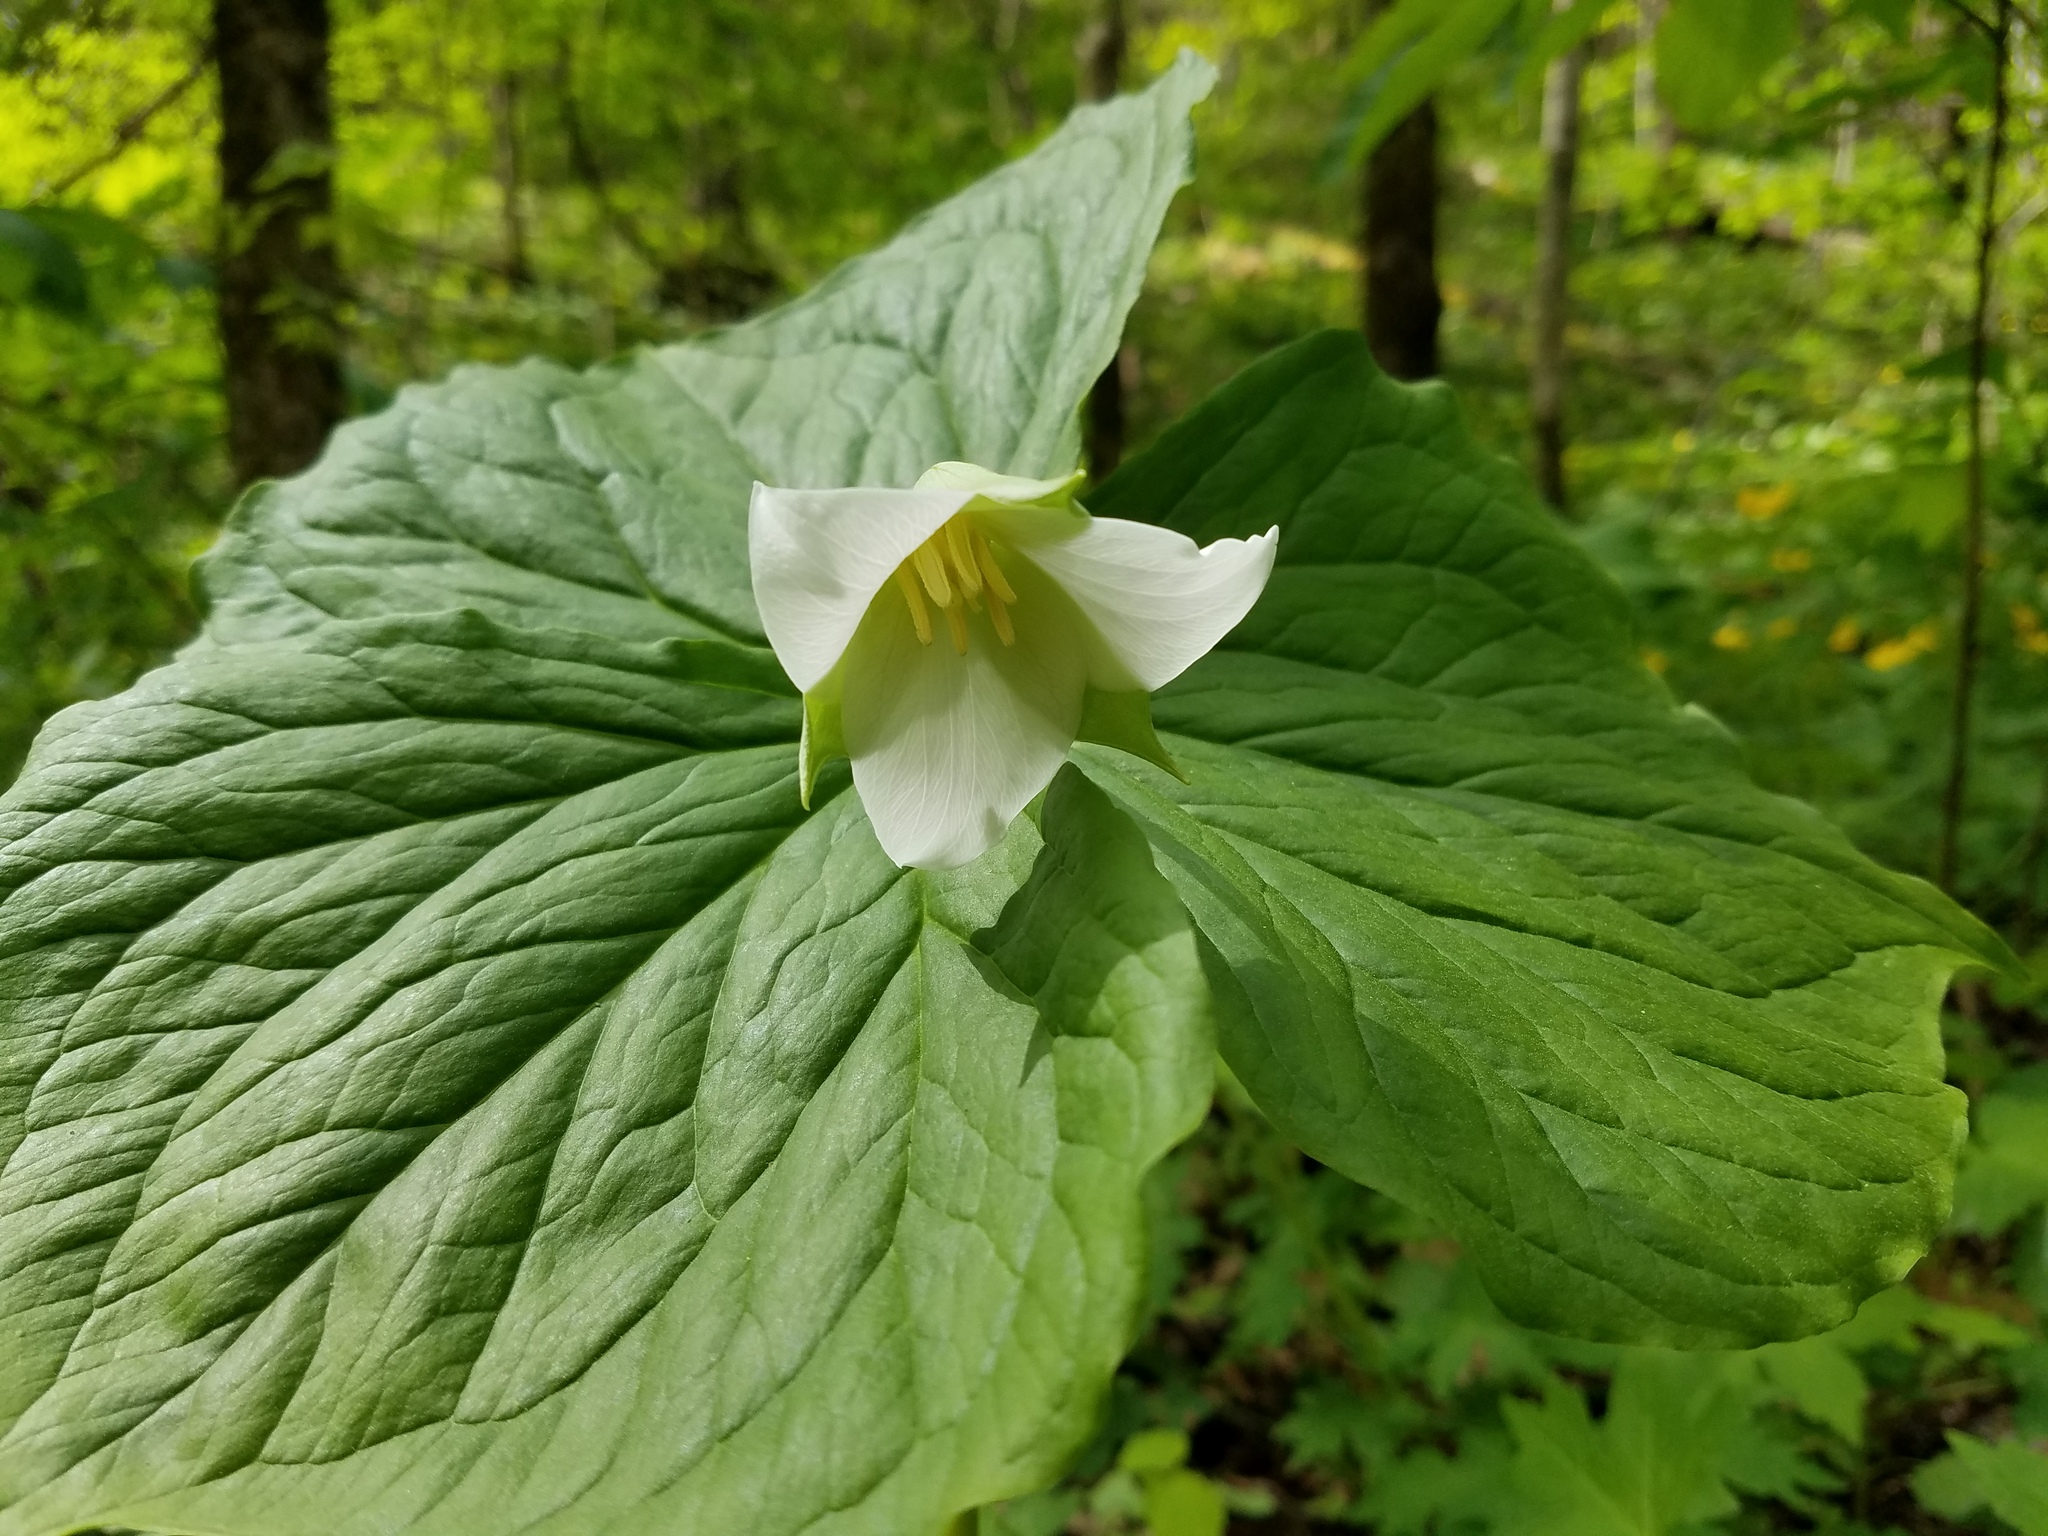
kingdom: Plantae
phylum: Tracheophyta
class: Liliopsida
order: Liliales
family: Melanthiaceae
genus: Trillium
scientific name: Trillium flexipes
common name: Drooping trillium
